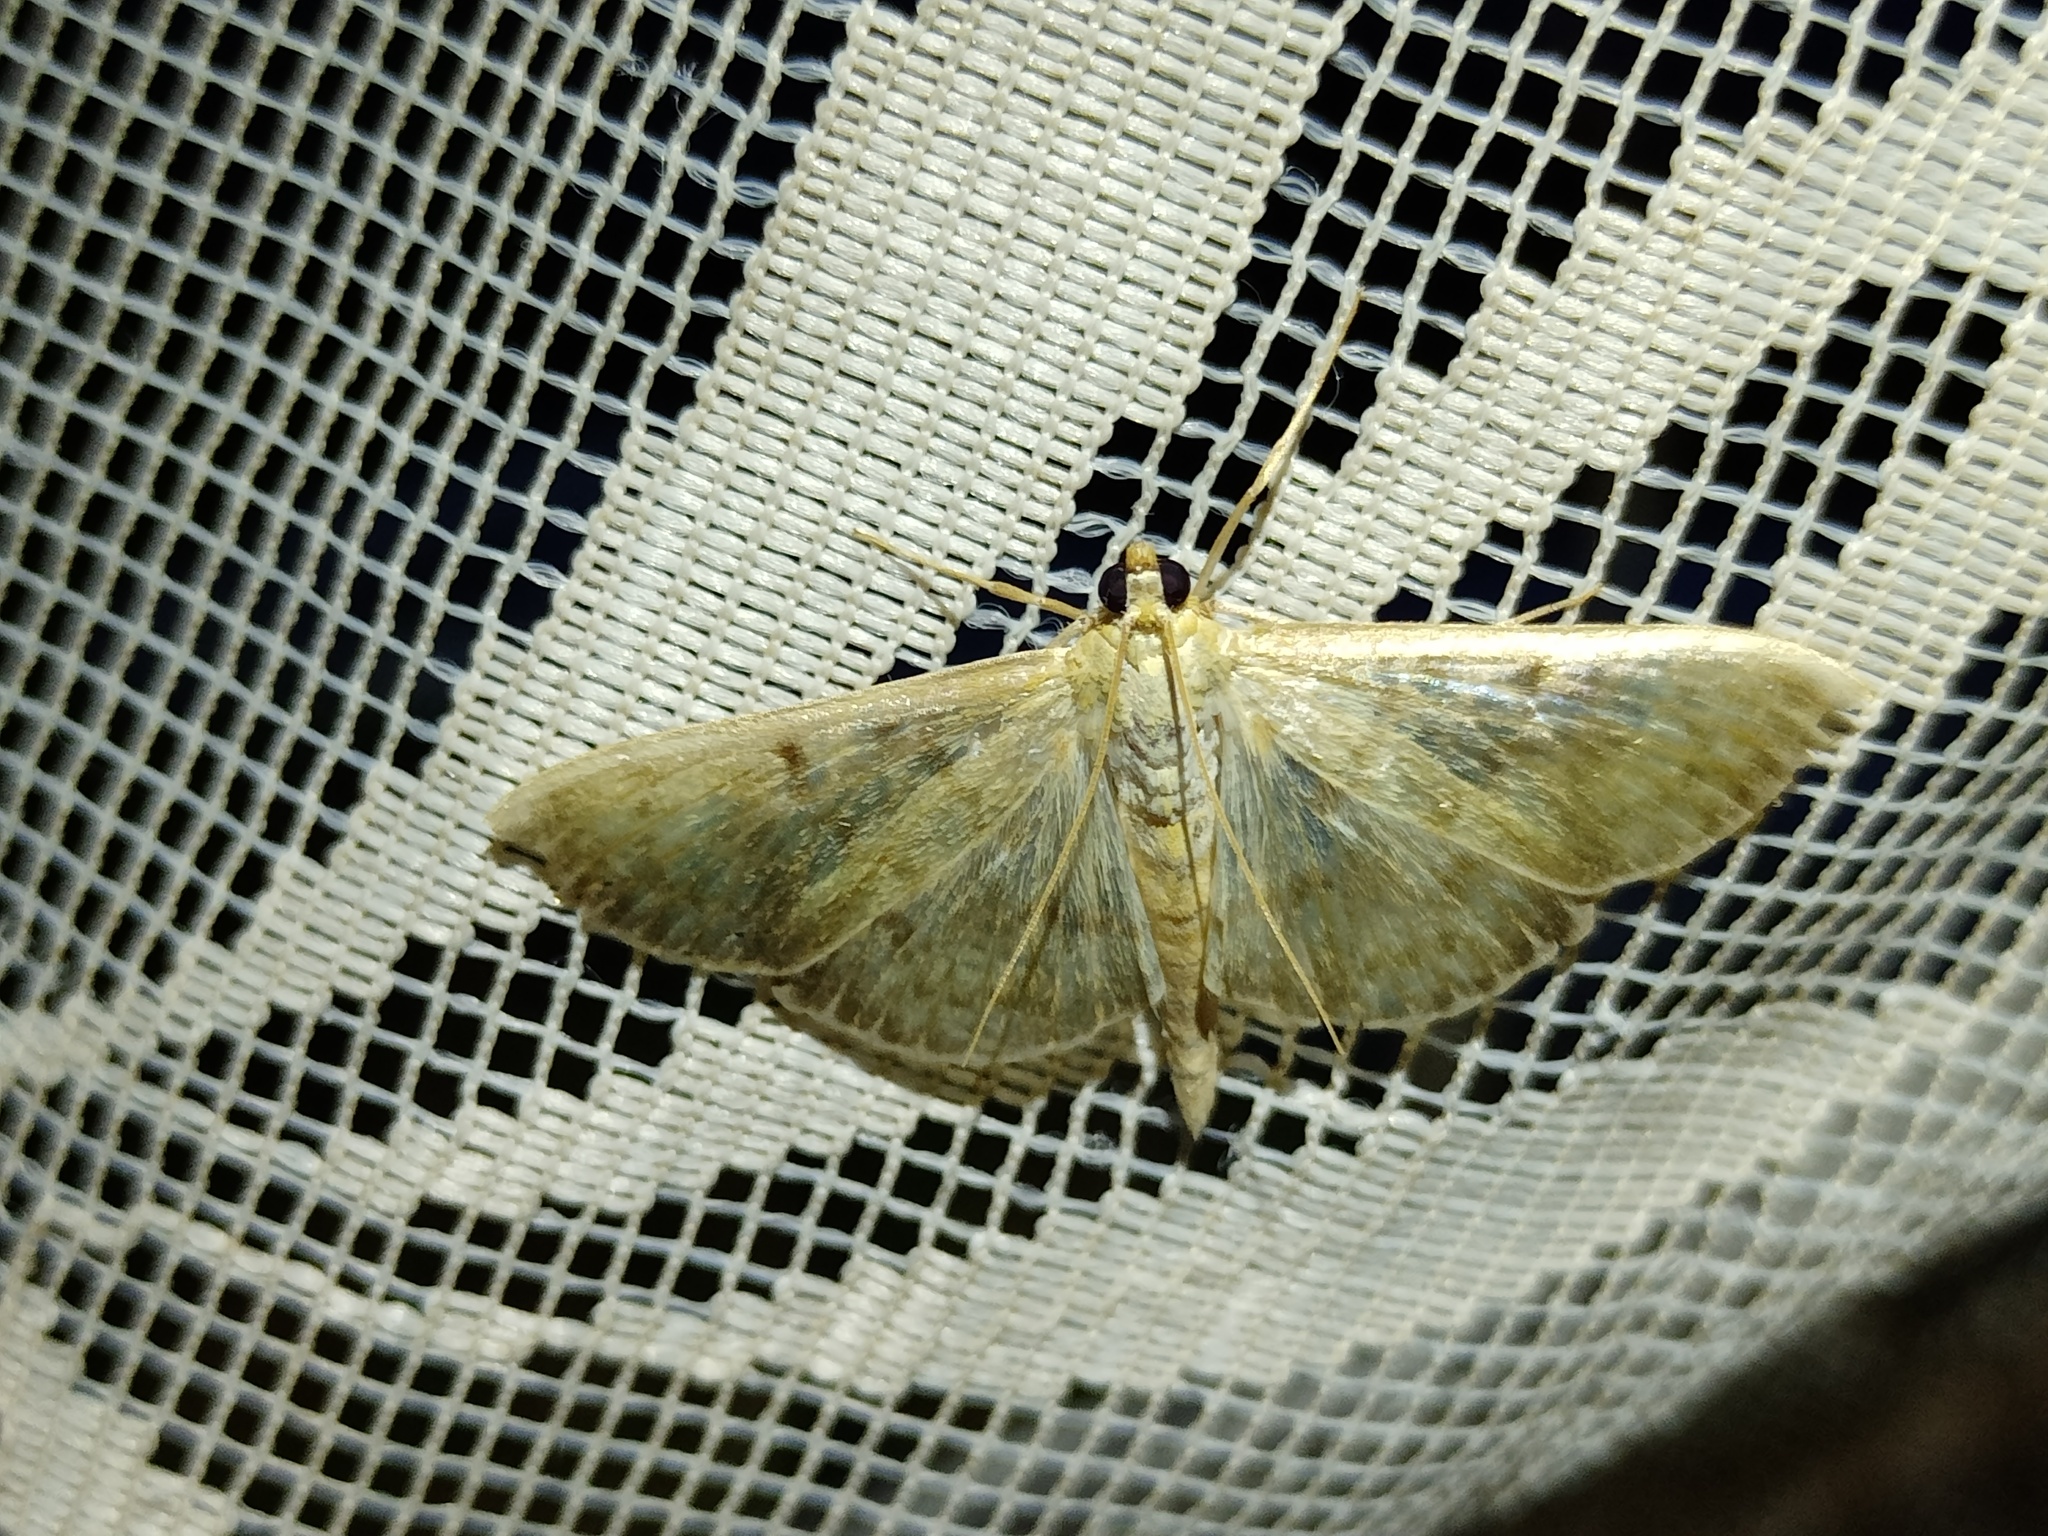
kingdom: Animalia
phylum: Arthropoda
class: Insecta
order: Lepidoptera
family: Crambidae
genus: Patania
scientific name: Patania ruralis
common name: Mother of pearl
